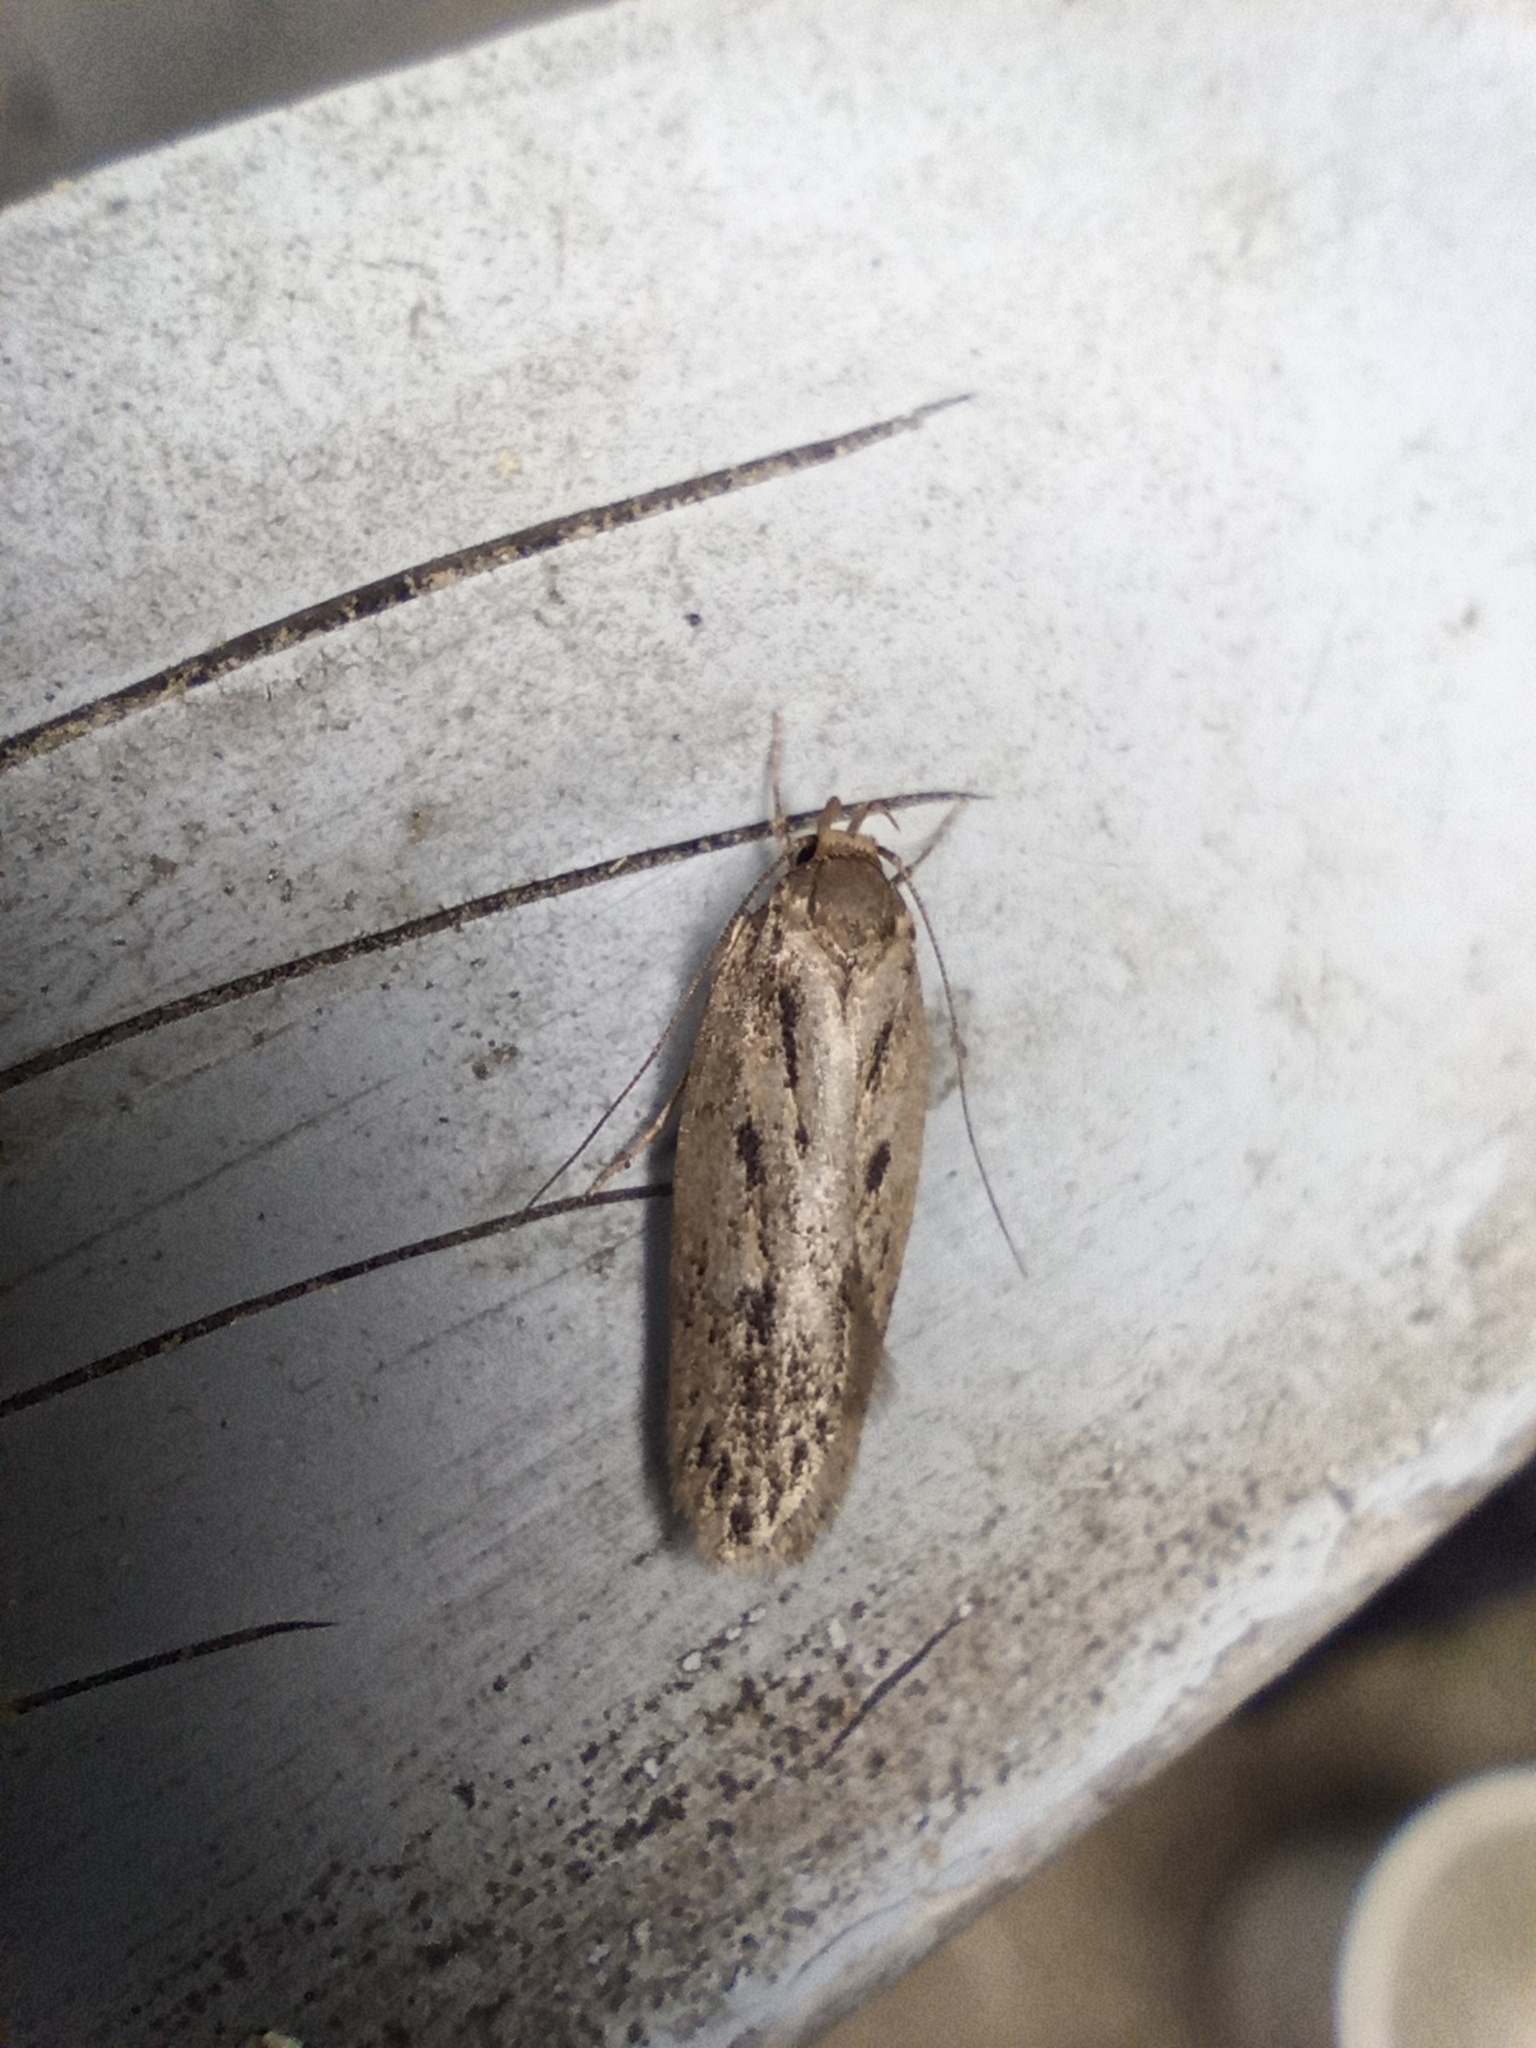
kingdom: Animalia
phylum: Arthropoda
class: Insecta
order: Lepidoptera
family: Oecophoridae
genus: Hofmannophila
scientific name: Hofmannophila pseudospretella
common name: Brown house moth
